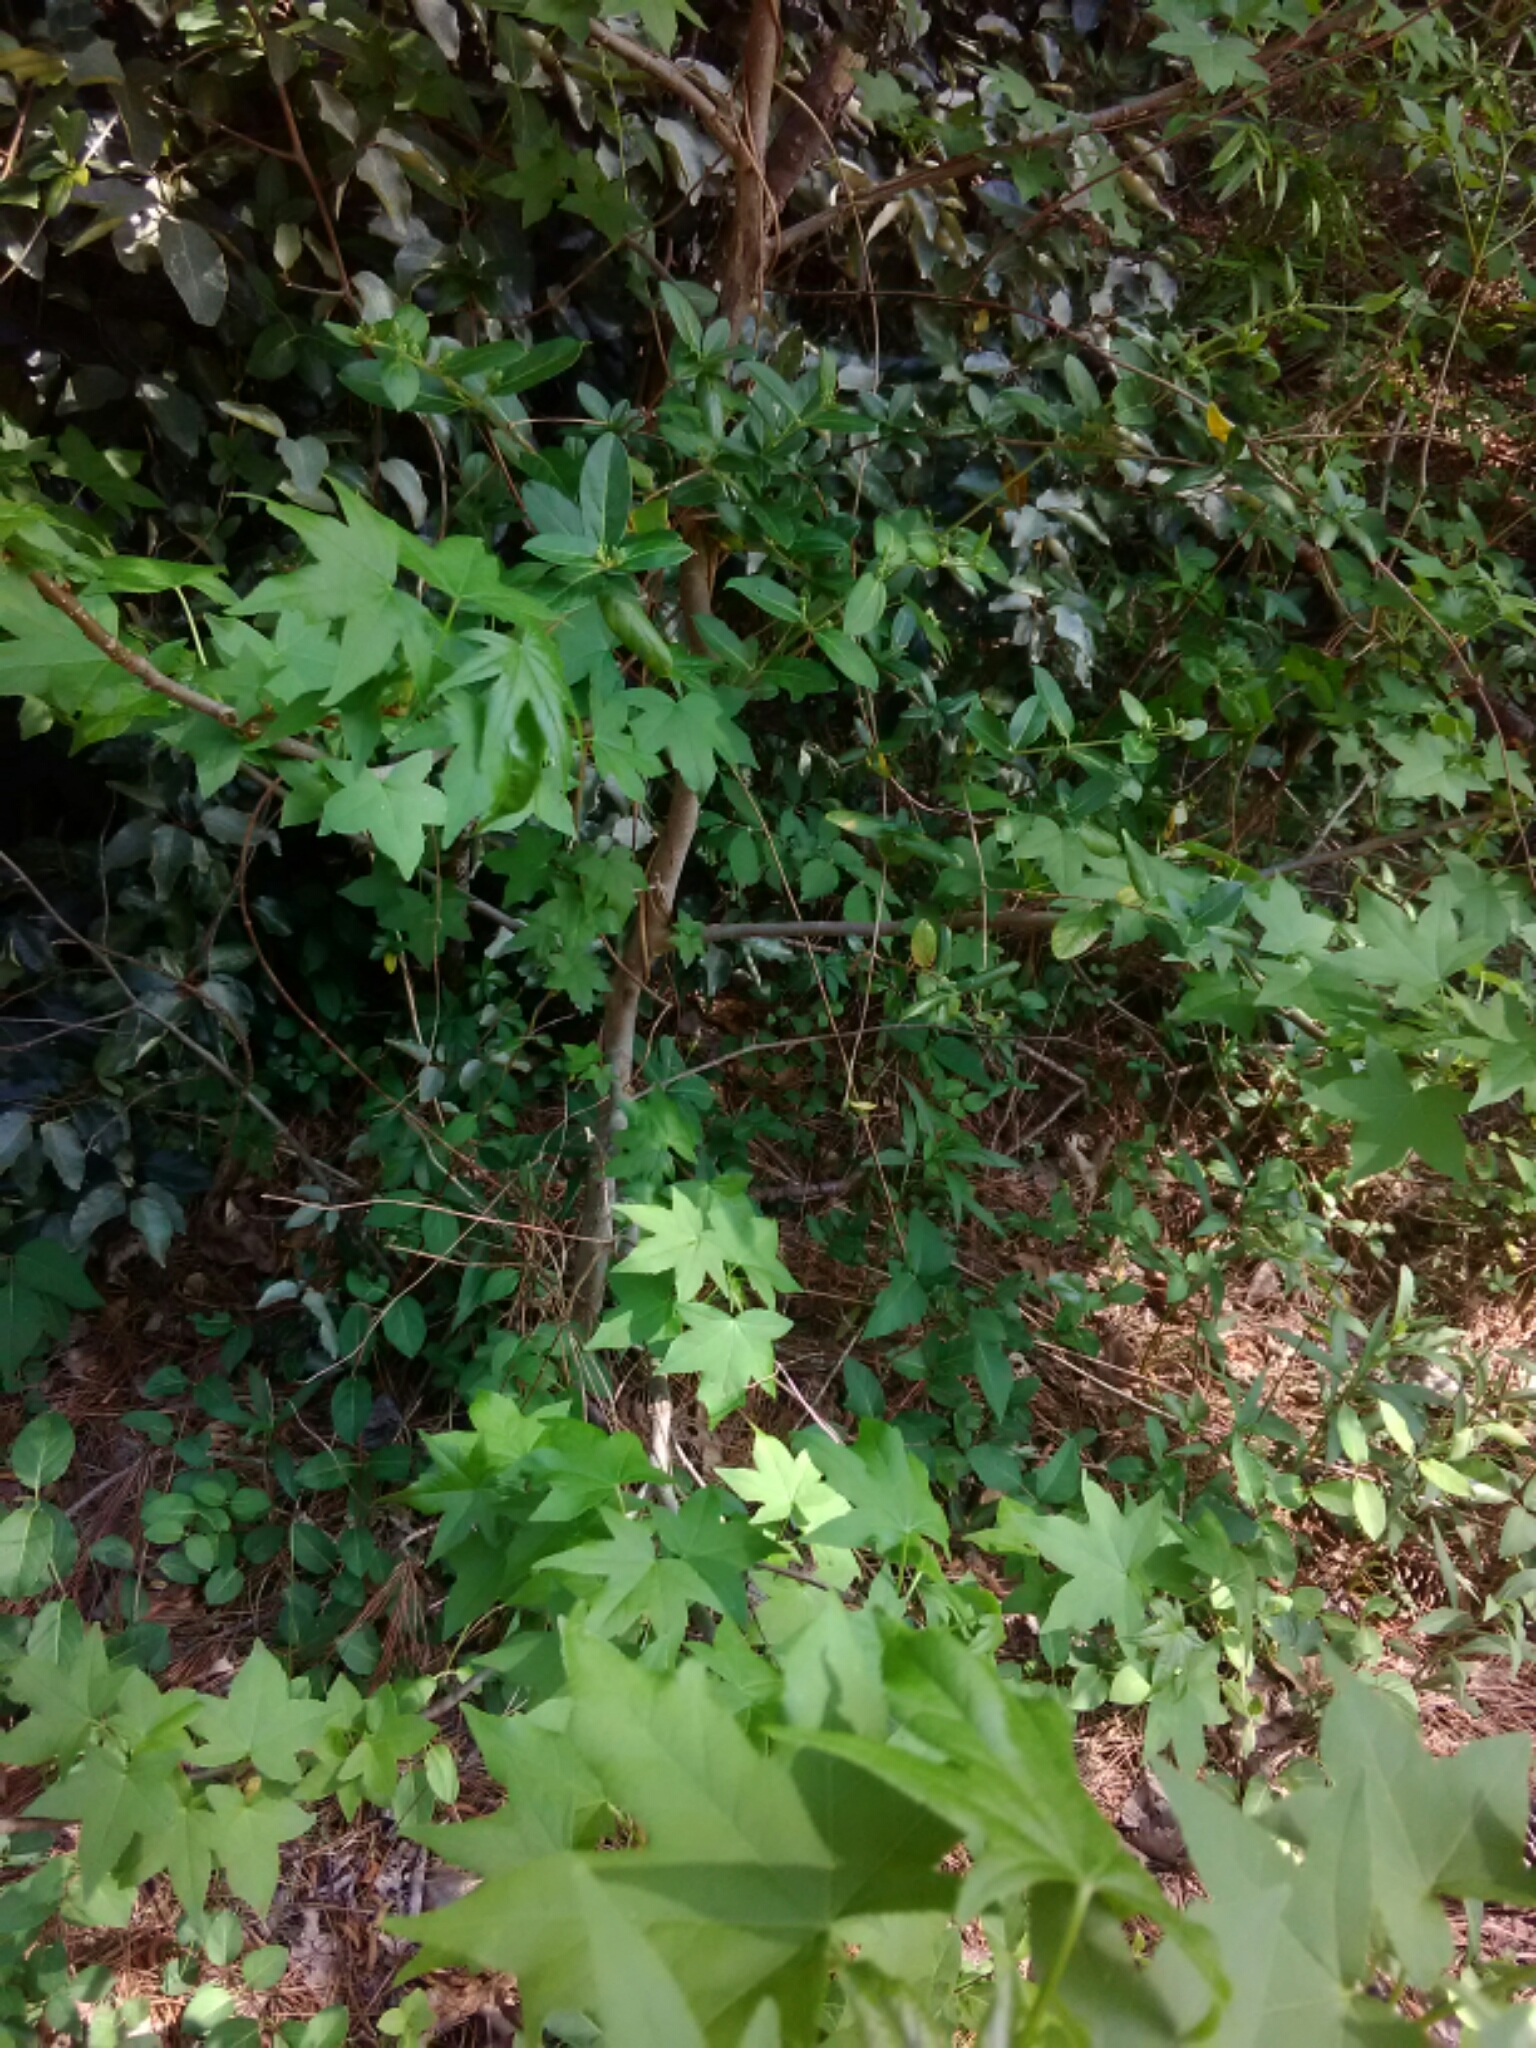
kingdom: Plantae
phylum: Tracheophyta
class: Magnoliopsida
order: Saxifragales
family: Altingiaceae
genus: Liquidambar
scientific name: Liquidambar styraciflua
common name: Sweet gum
